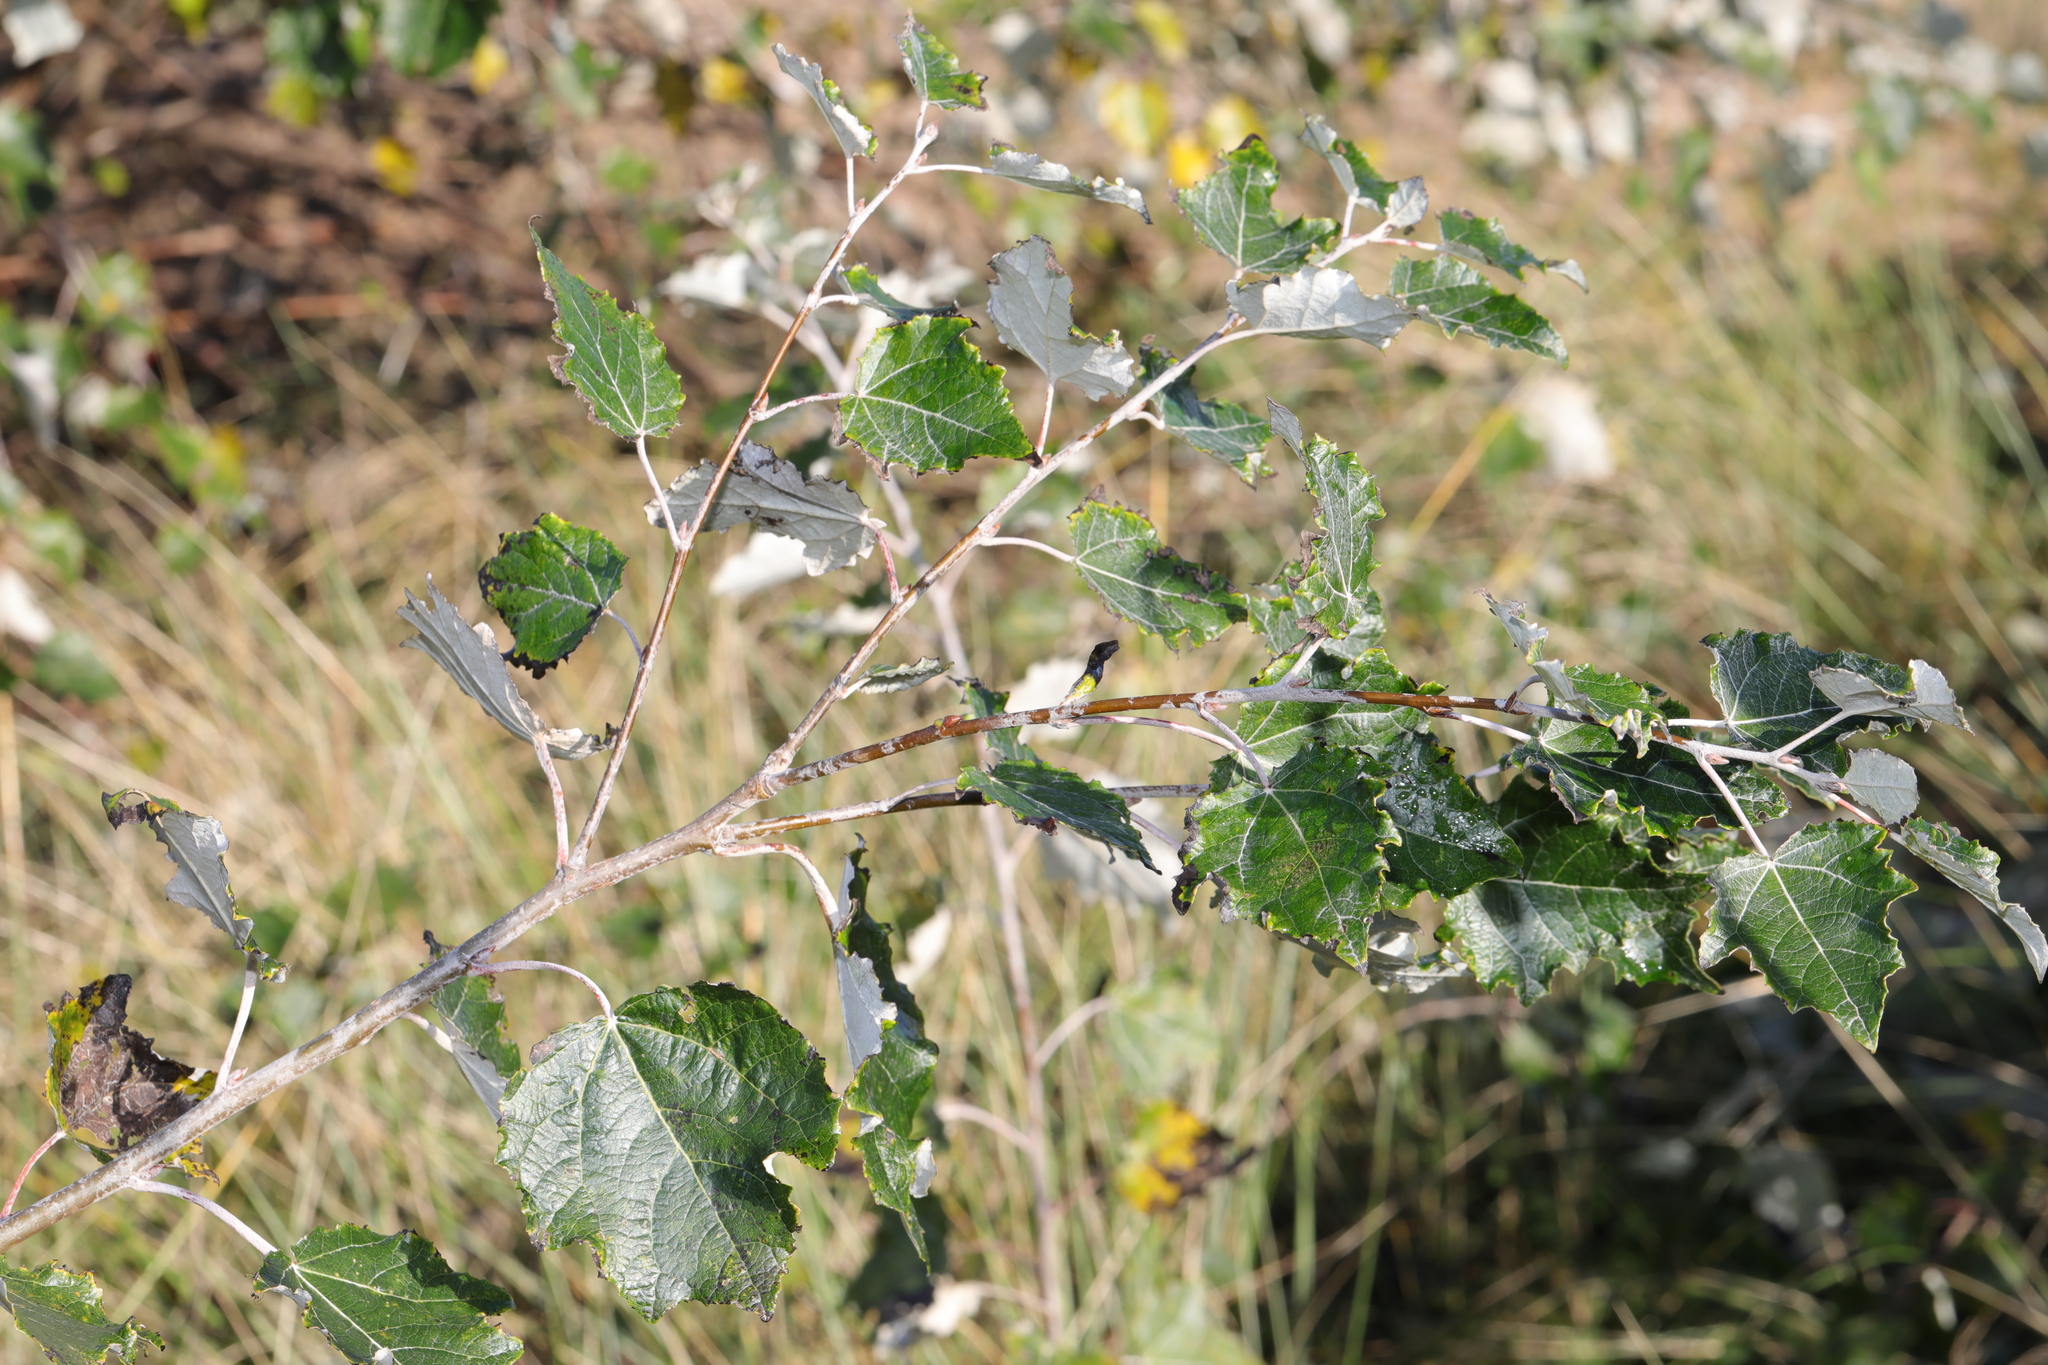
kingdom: Plantae
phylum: Tracheophyta
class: Magnoliopsida
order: Malpighiales
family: Salicaceae
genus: Populus
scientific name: Populus alba
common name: White poplar
